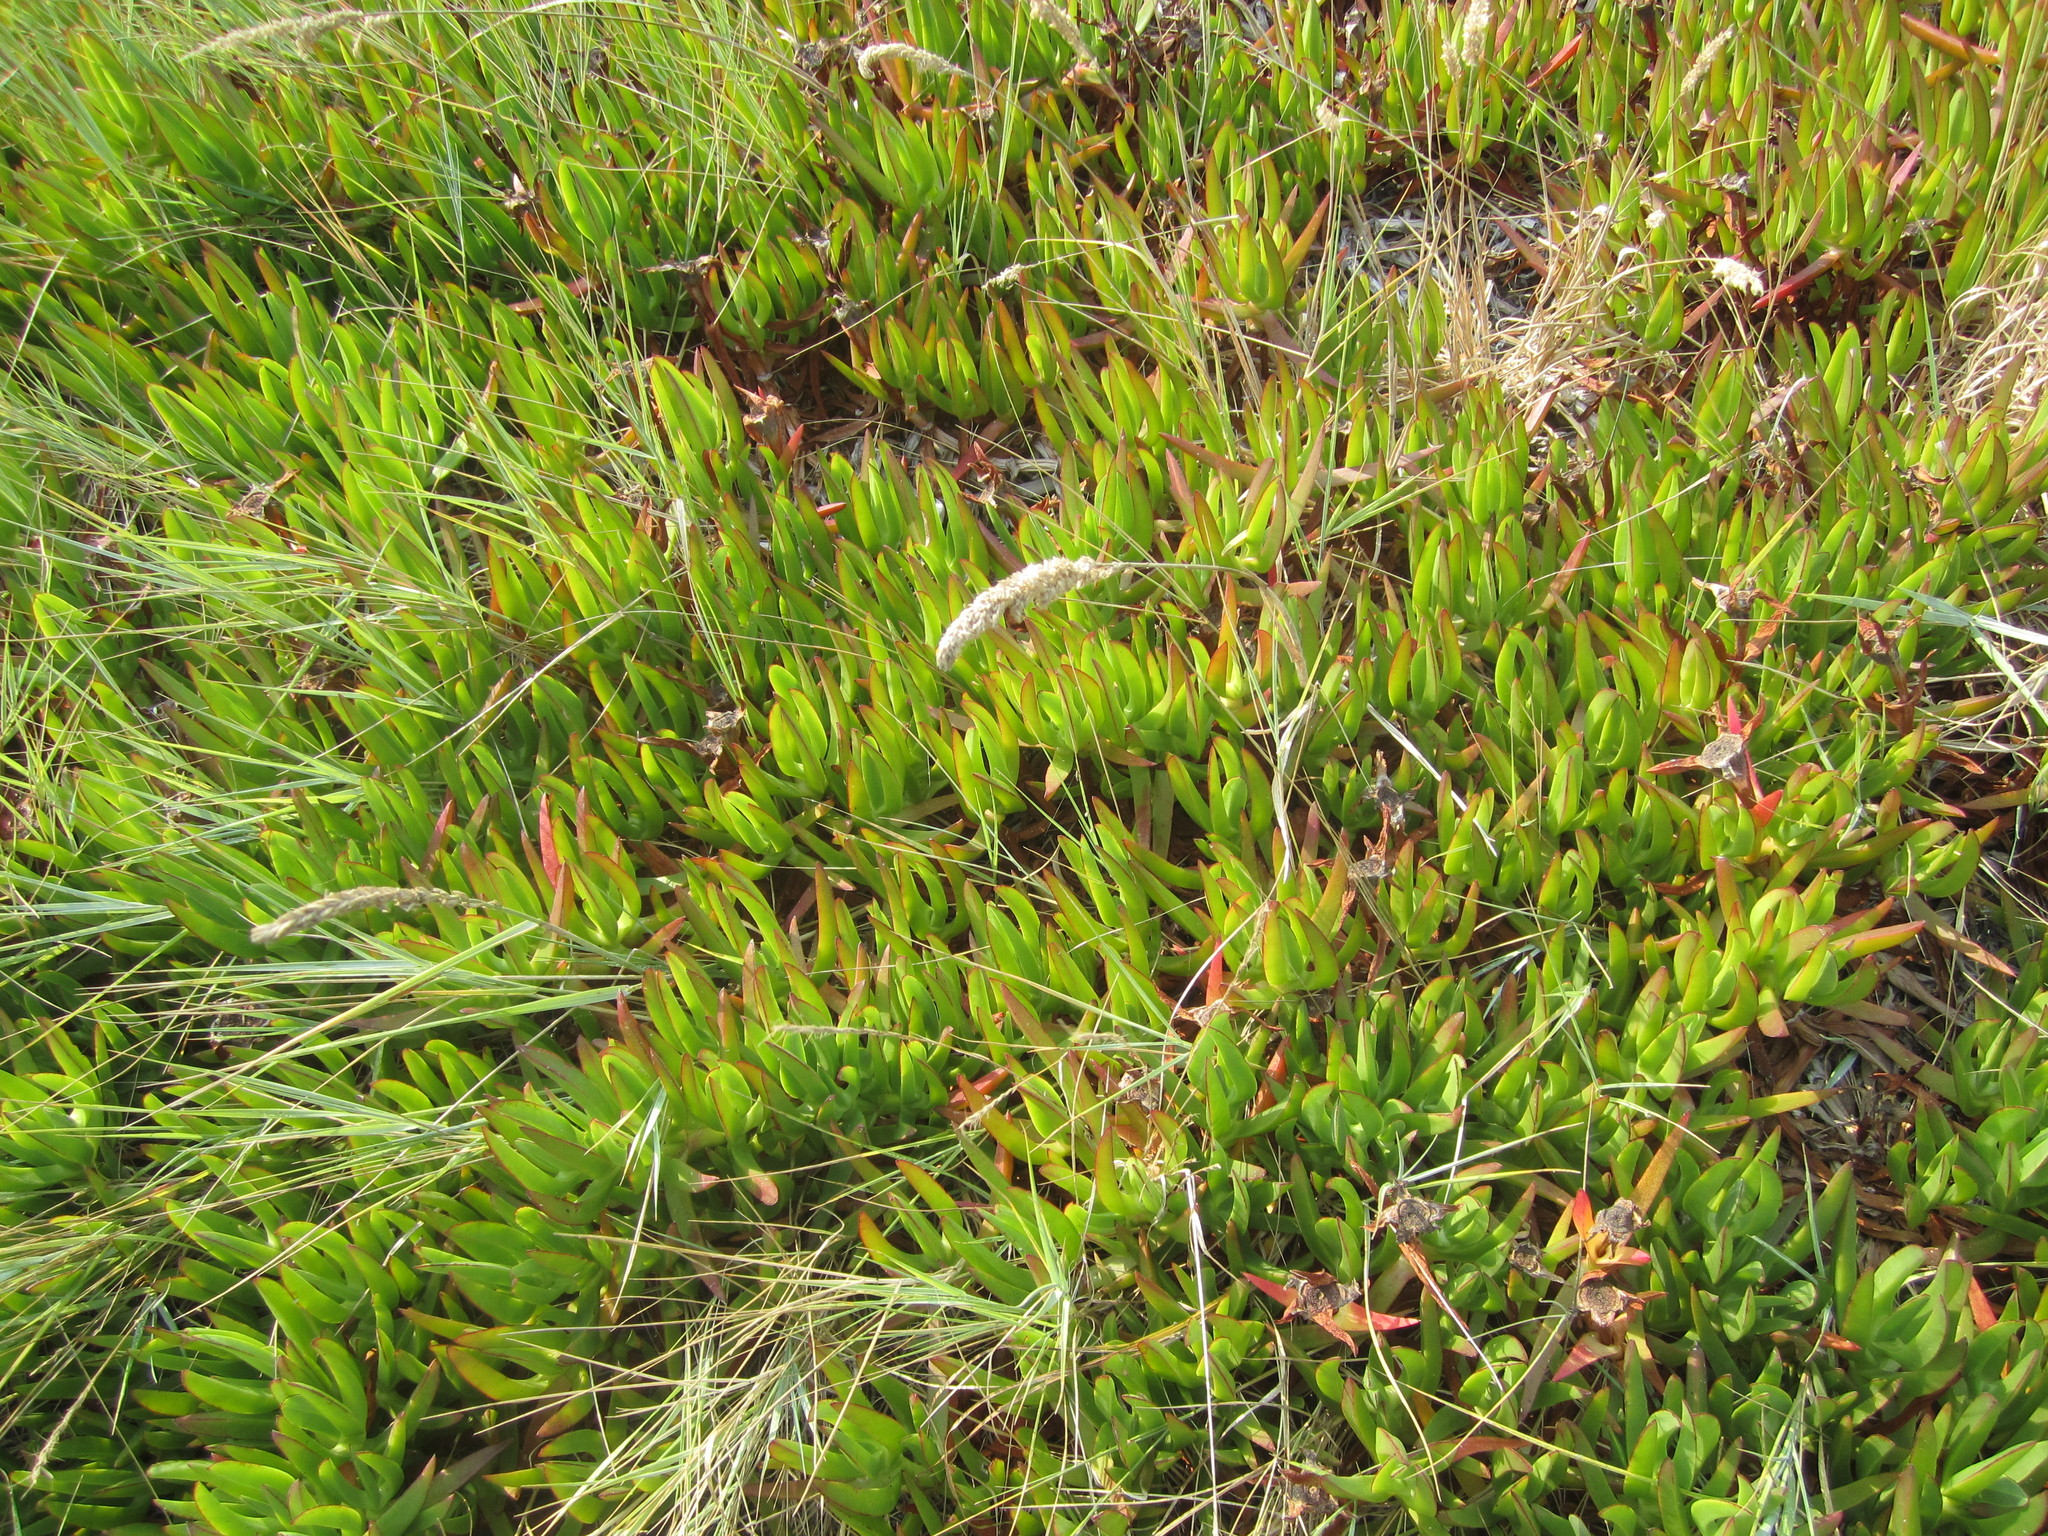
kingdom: Plantae
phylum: Tracheophyta
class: Magnoliopsida
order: Caryophyllales
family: Aizoaceae
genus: Carpobrotus
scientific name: Carpobrotus edulis
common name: Hottentot-fig
